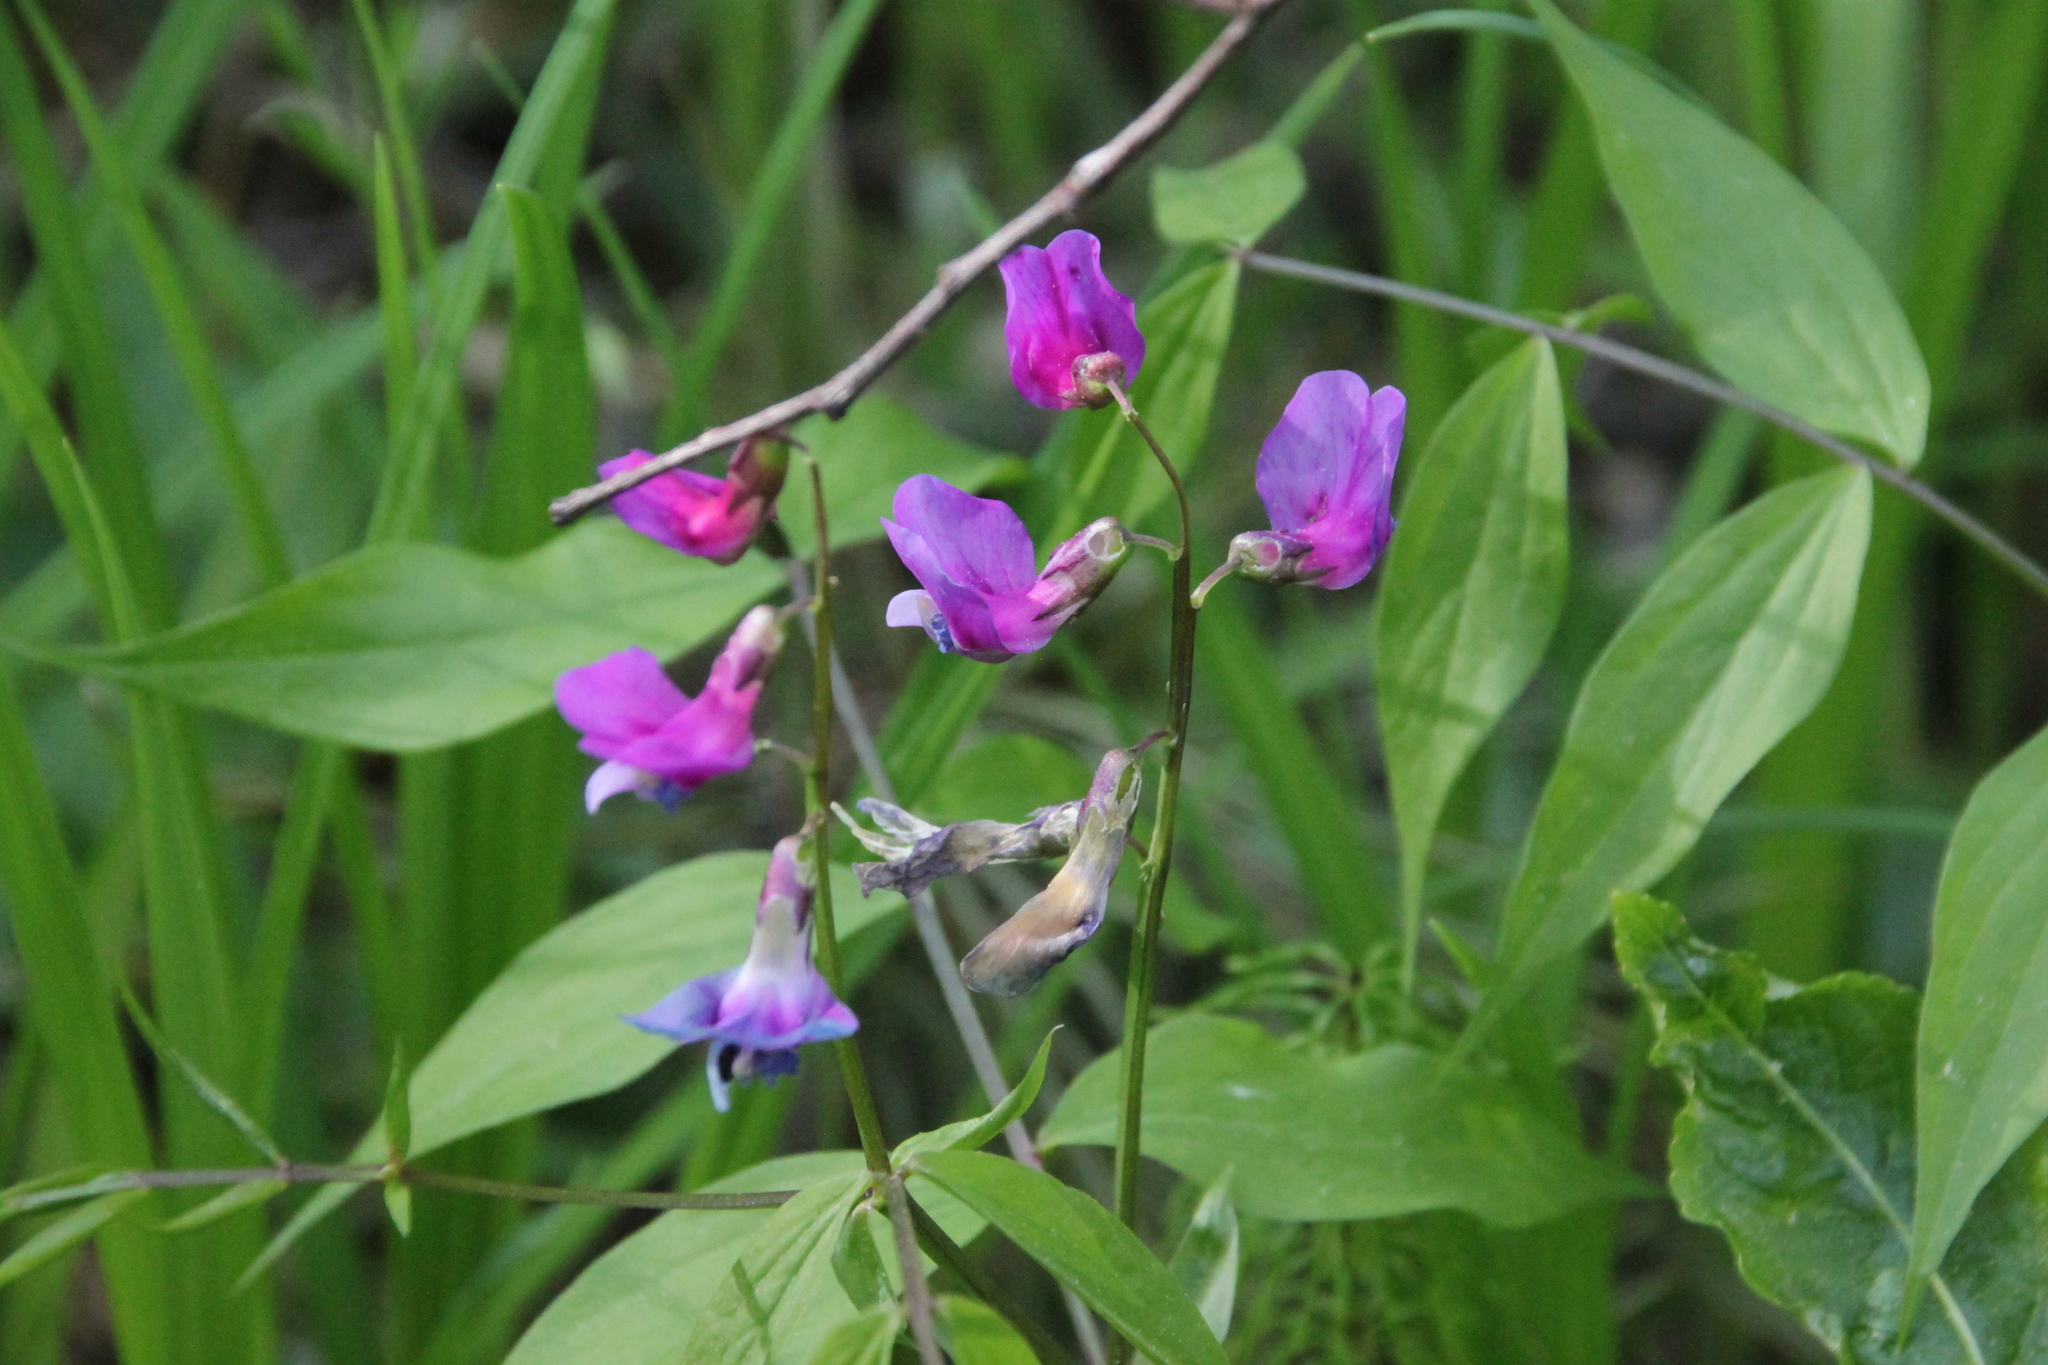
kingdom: Plantae
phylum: Tracheophyta
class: Magnoliopsida
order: Fabales
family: Fabaceae
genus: Lathyrus
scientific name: Lathyrus vernus
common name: Spring pea
